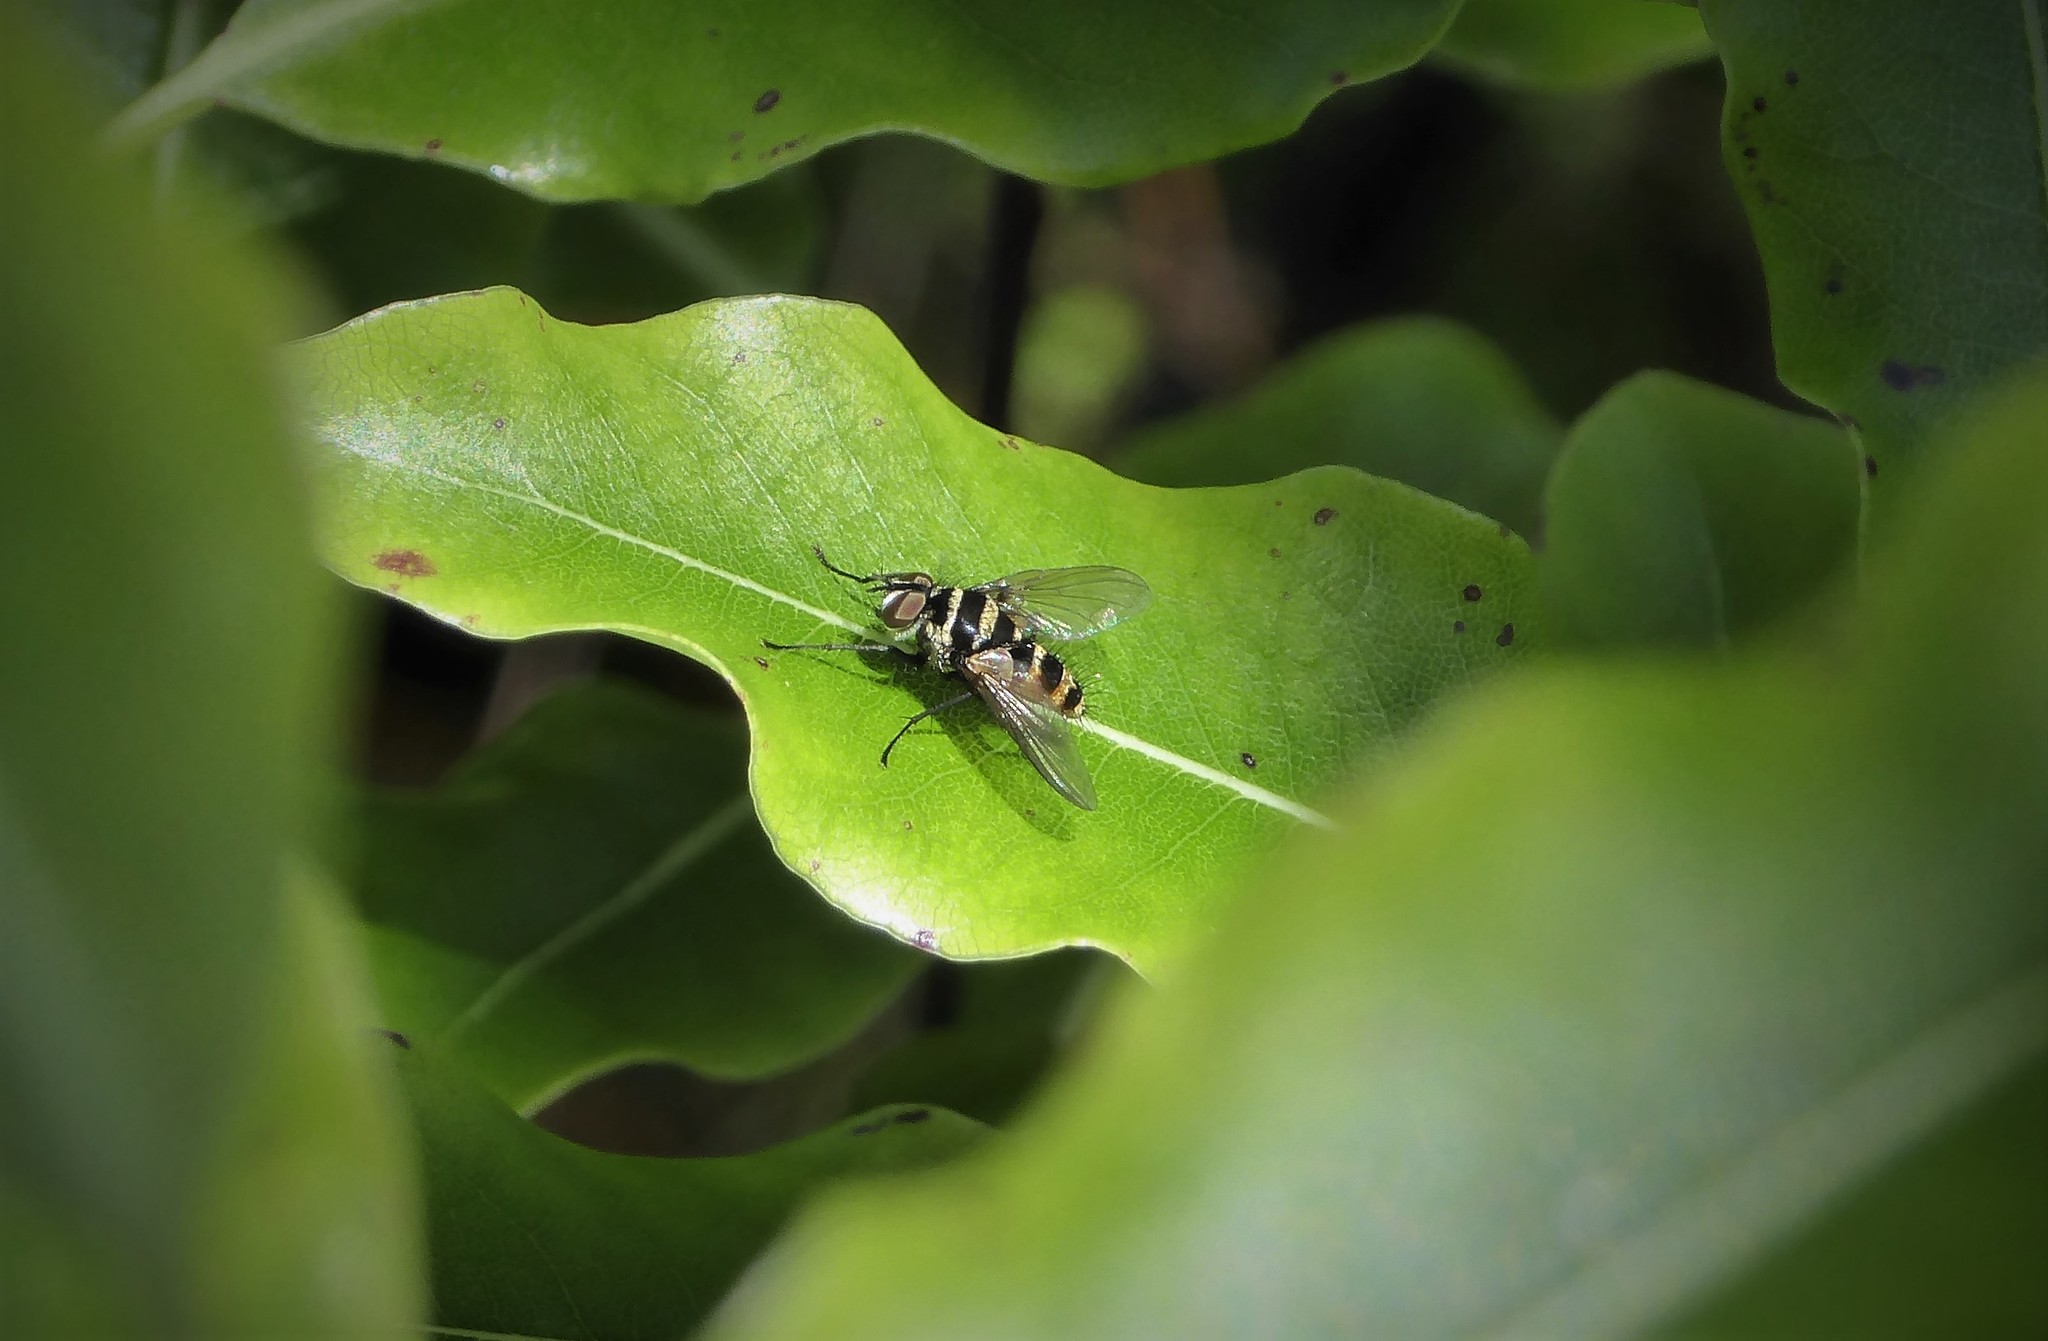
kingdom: Animalia
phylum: Arthropoda
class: Insecta
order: Diptera
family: Tachinidae
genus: Trigonospila
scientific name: Trigonospila brevifacies
